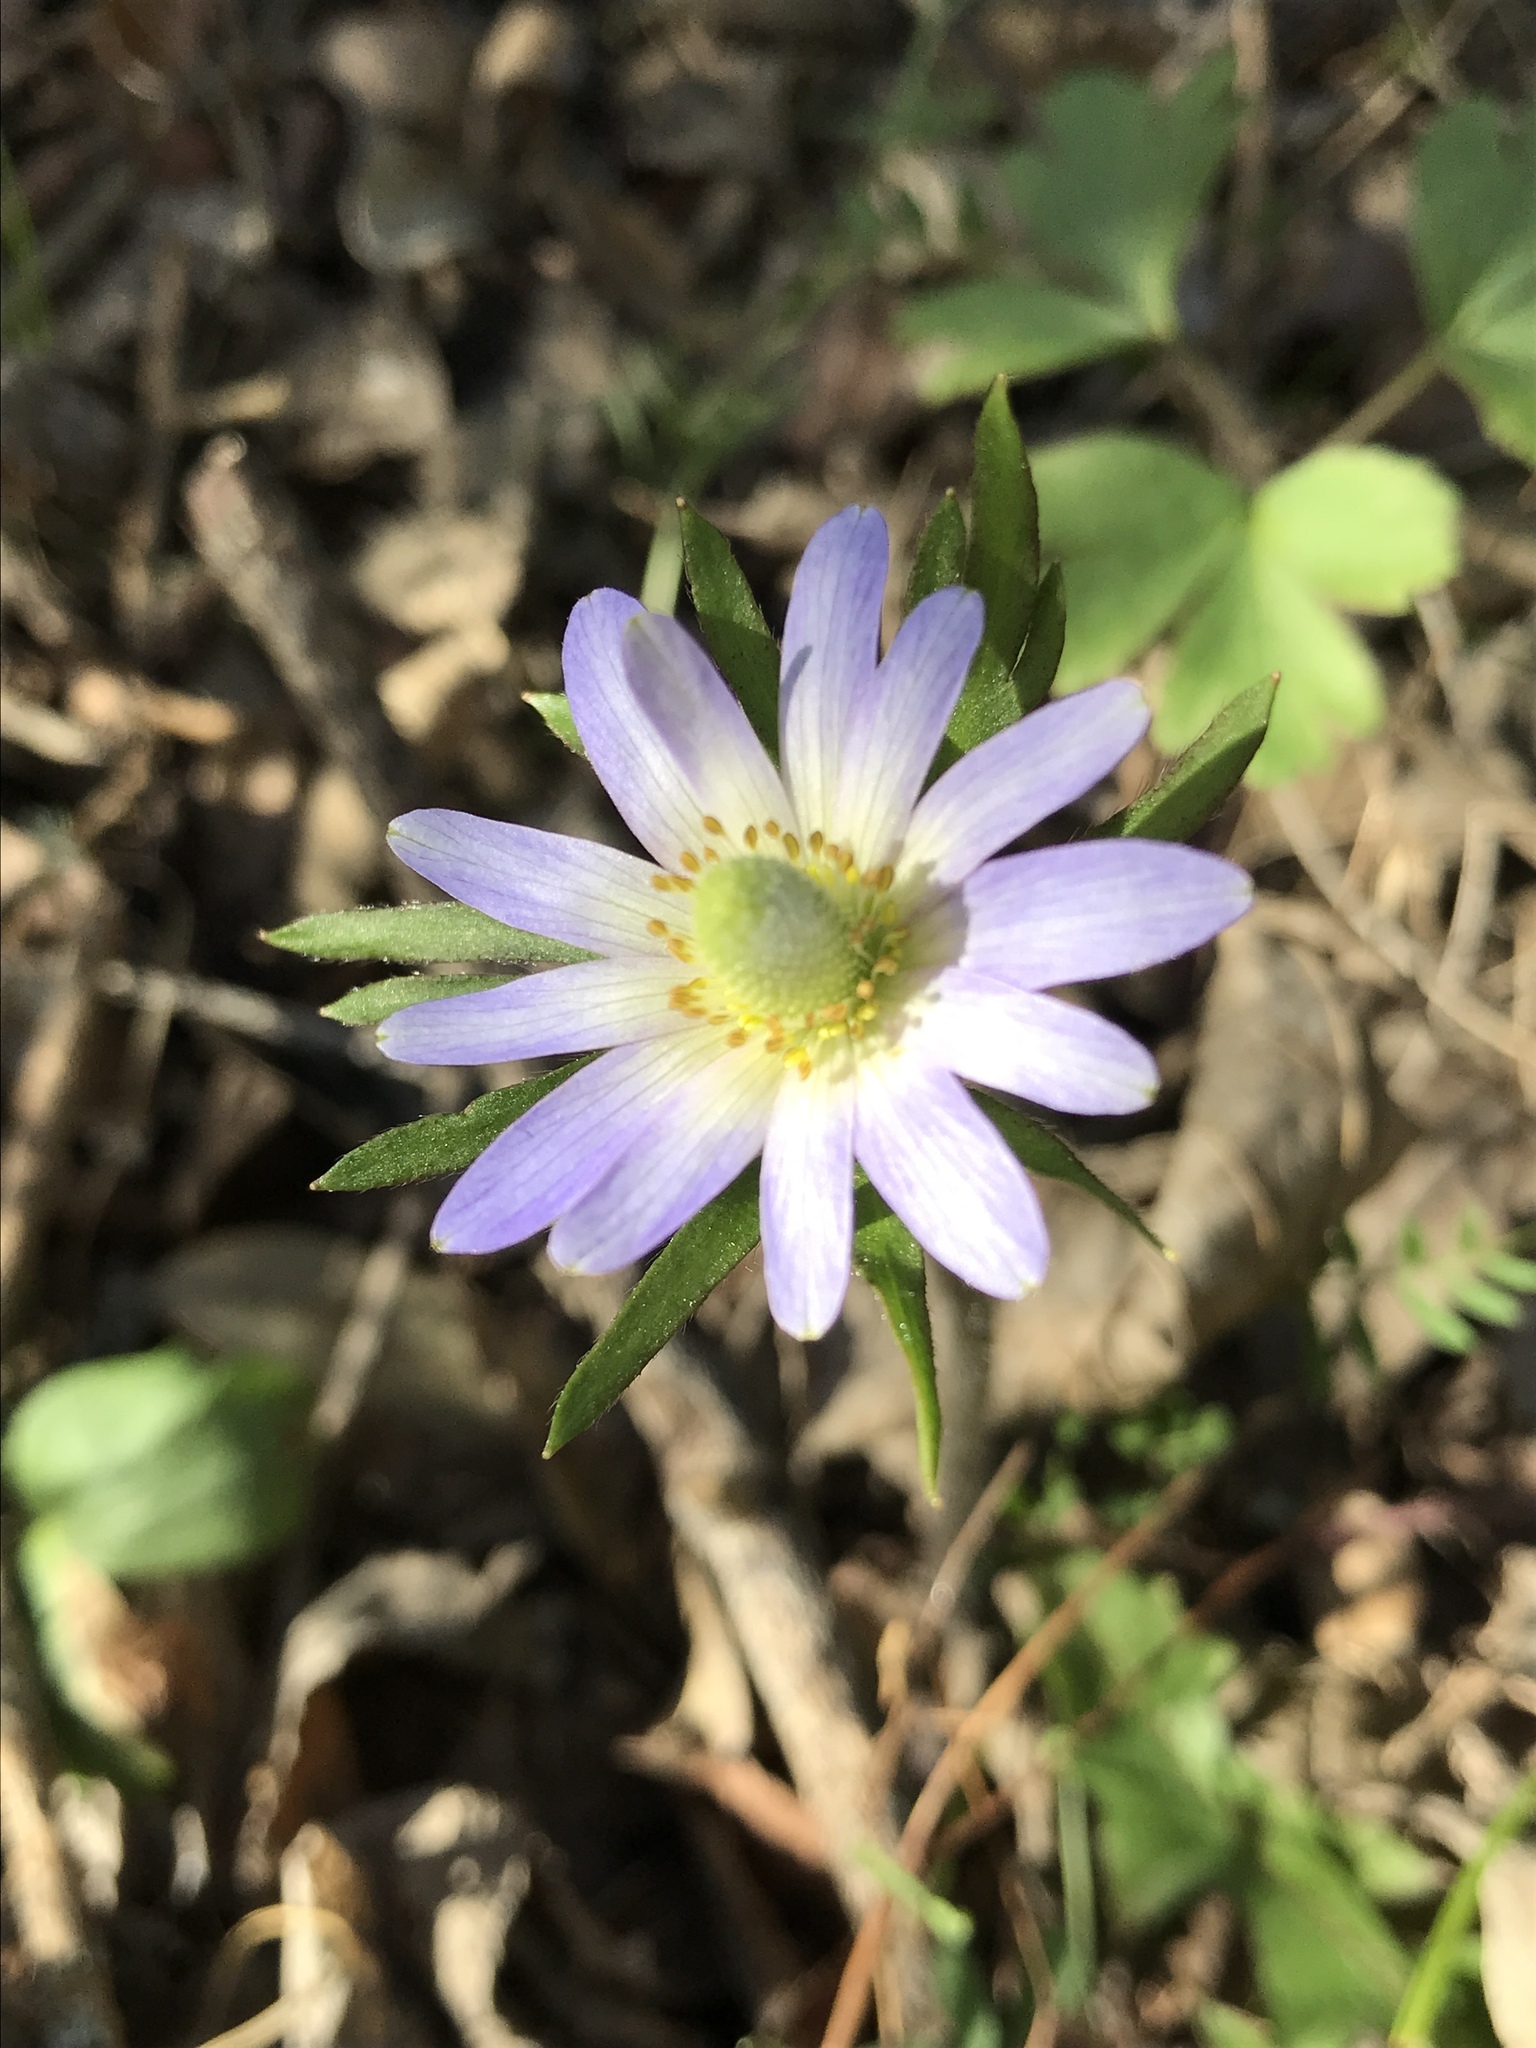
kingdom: Plantae
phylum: Tracheophyta
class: Magnoliopsida
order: Ranunculales
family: Ranunculaceae
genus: Anemone
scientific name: Anemone berlandieri
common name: Ten-petal anemone
